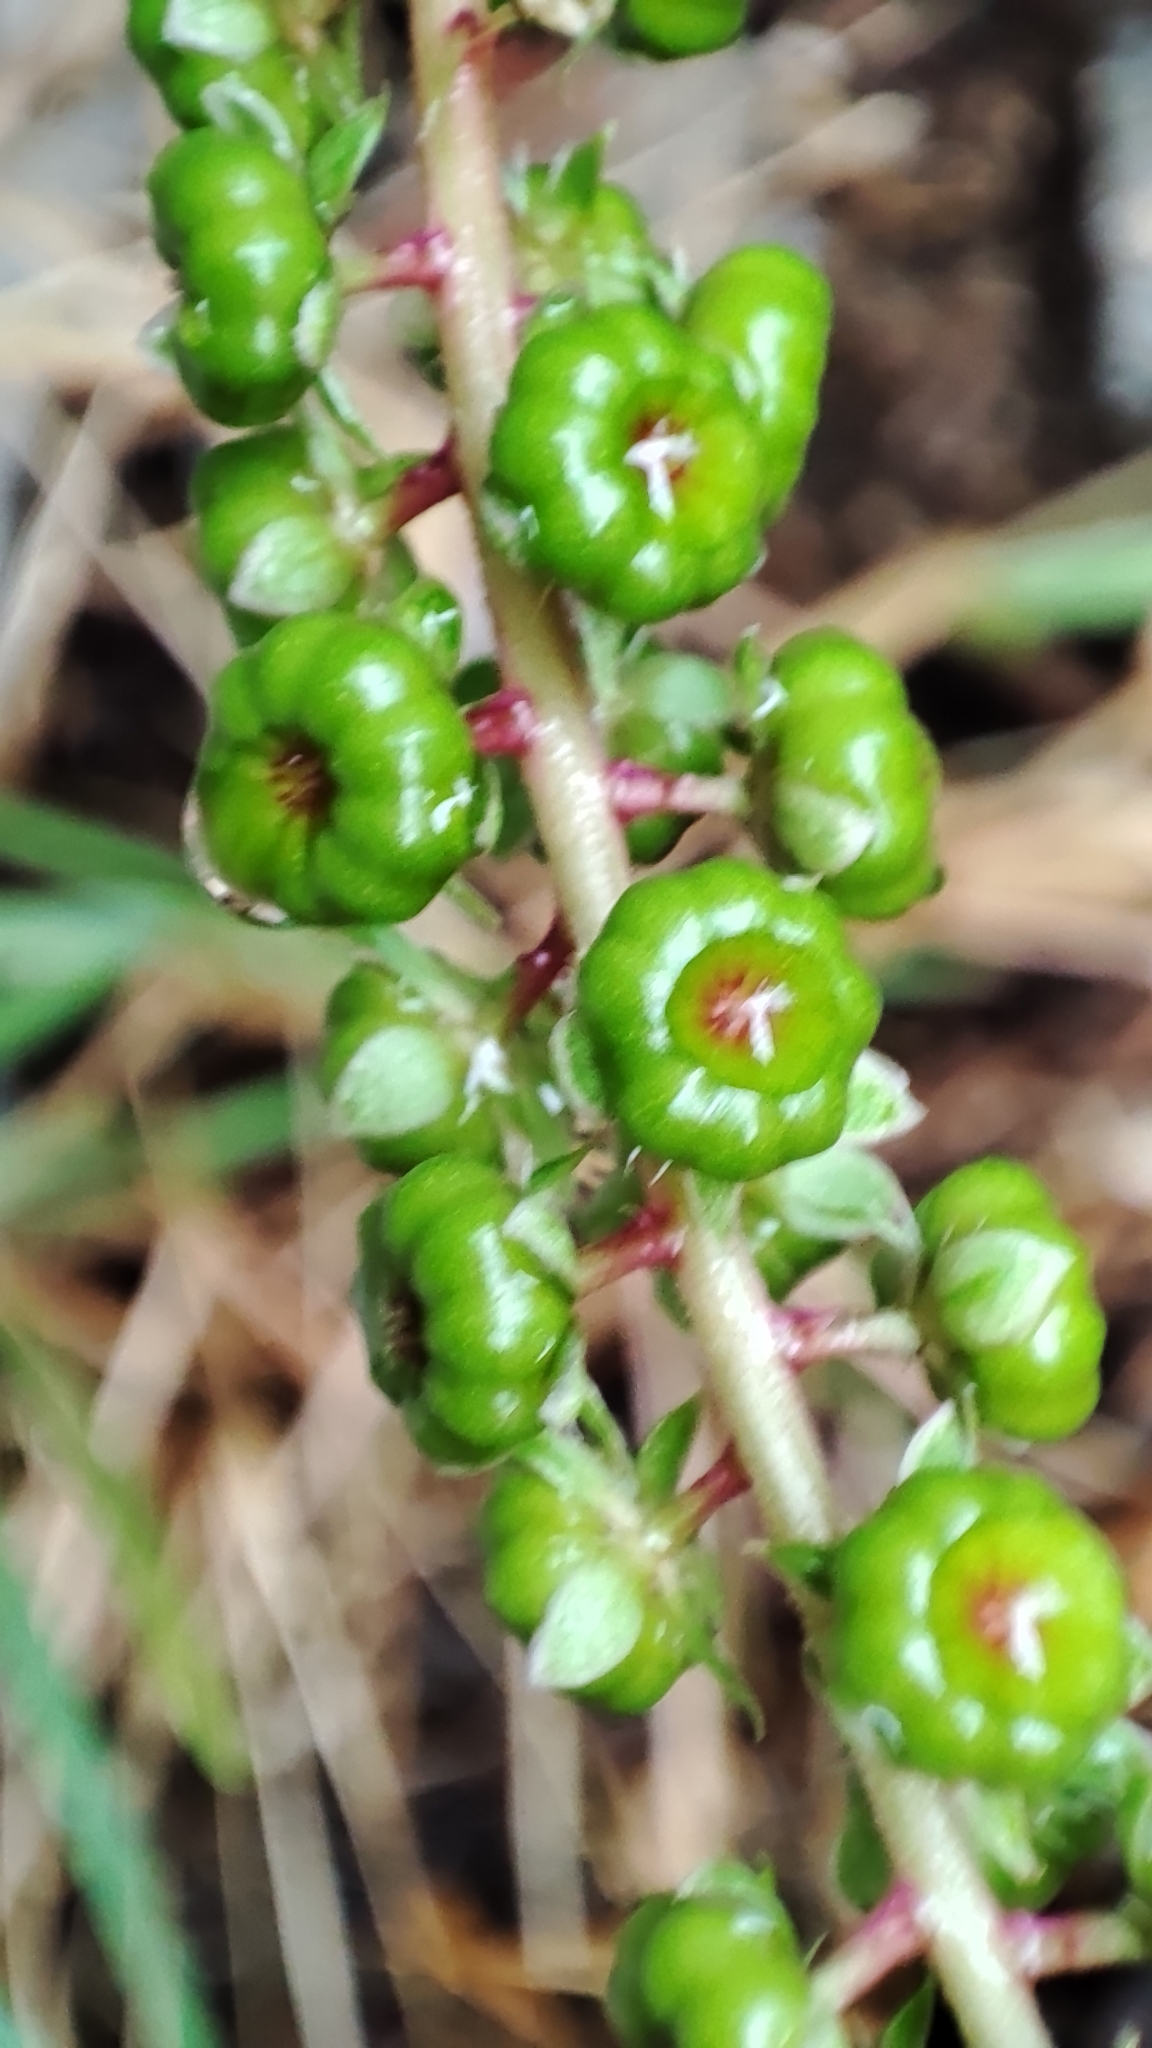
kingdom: Plantae
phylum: Tracheophyta
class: Magnoliopsida
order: Caryophyllales
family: Phytolaccaceae
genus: Phytolacca
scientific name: Phytolacca heterotepala
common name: Mexican pokeweed
